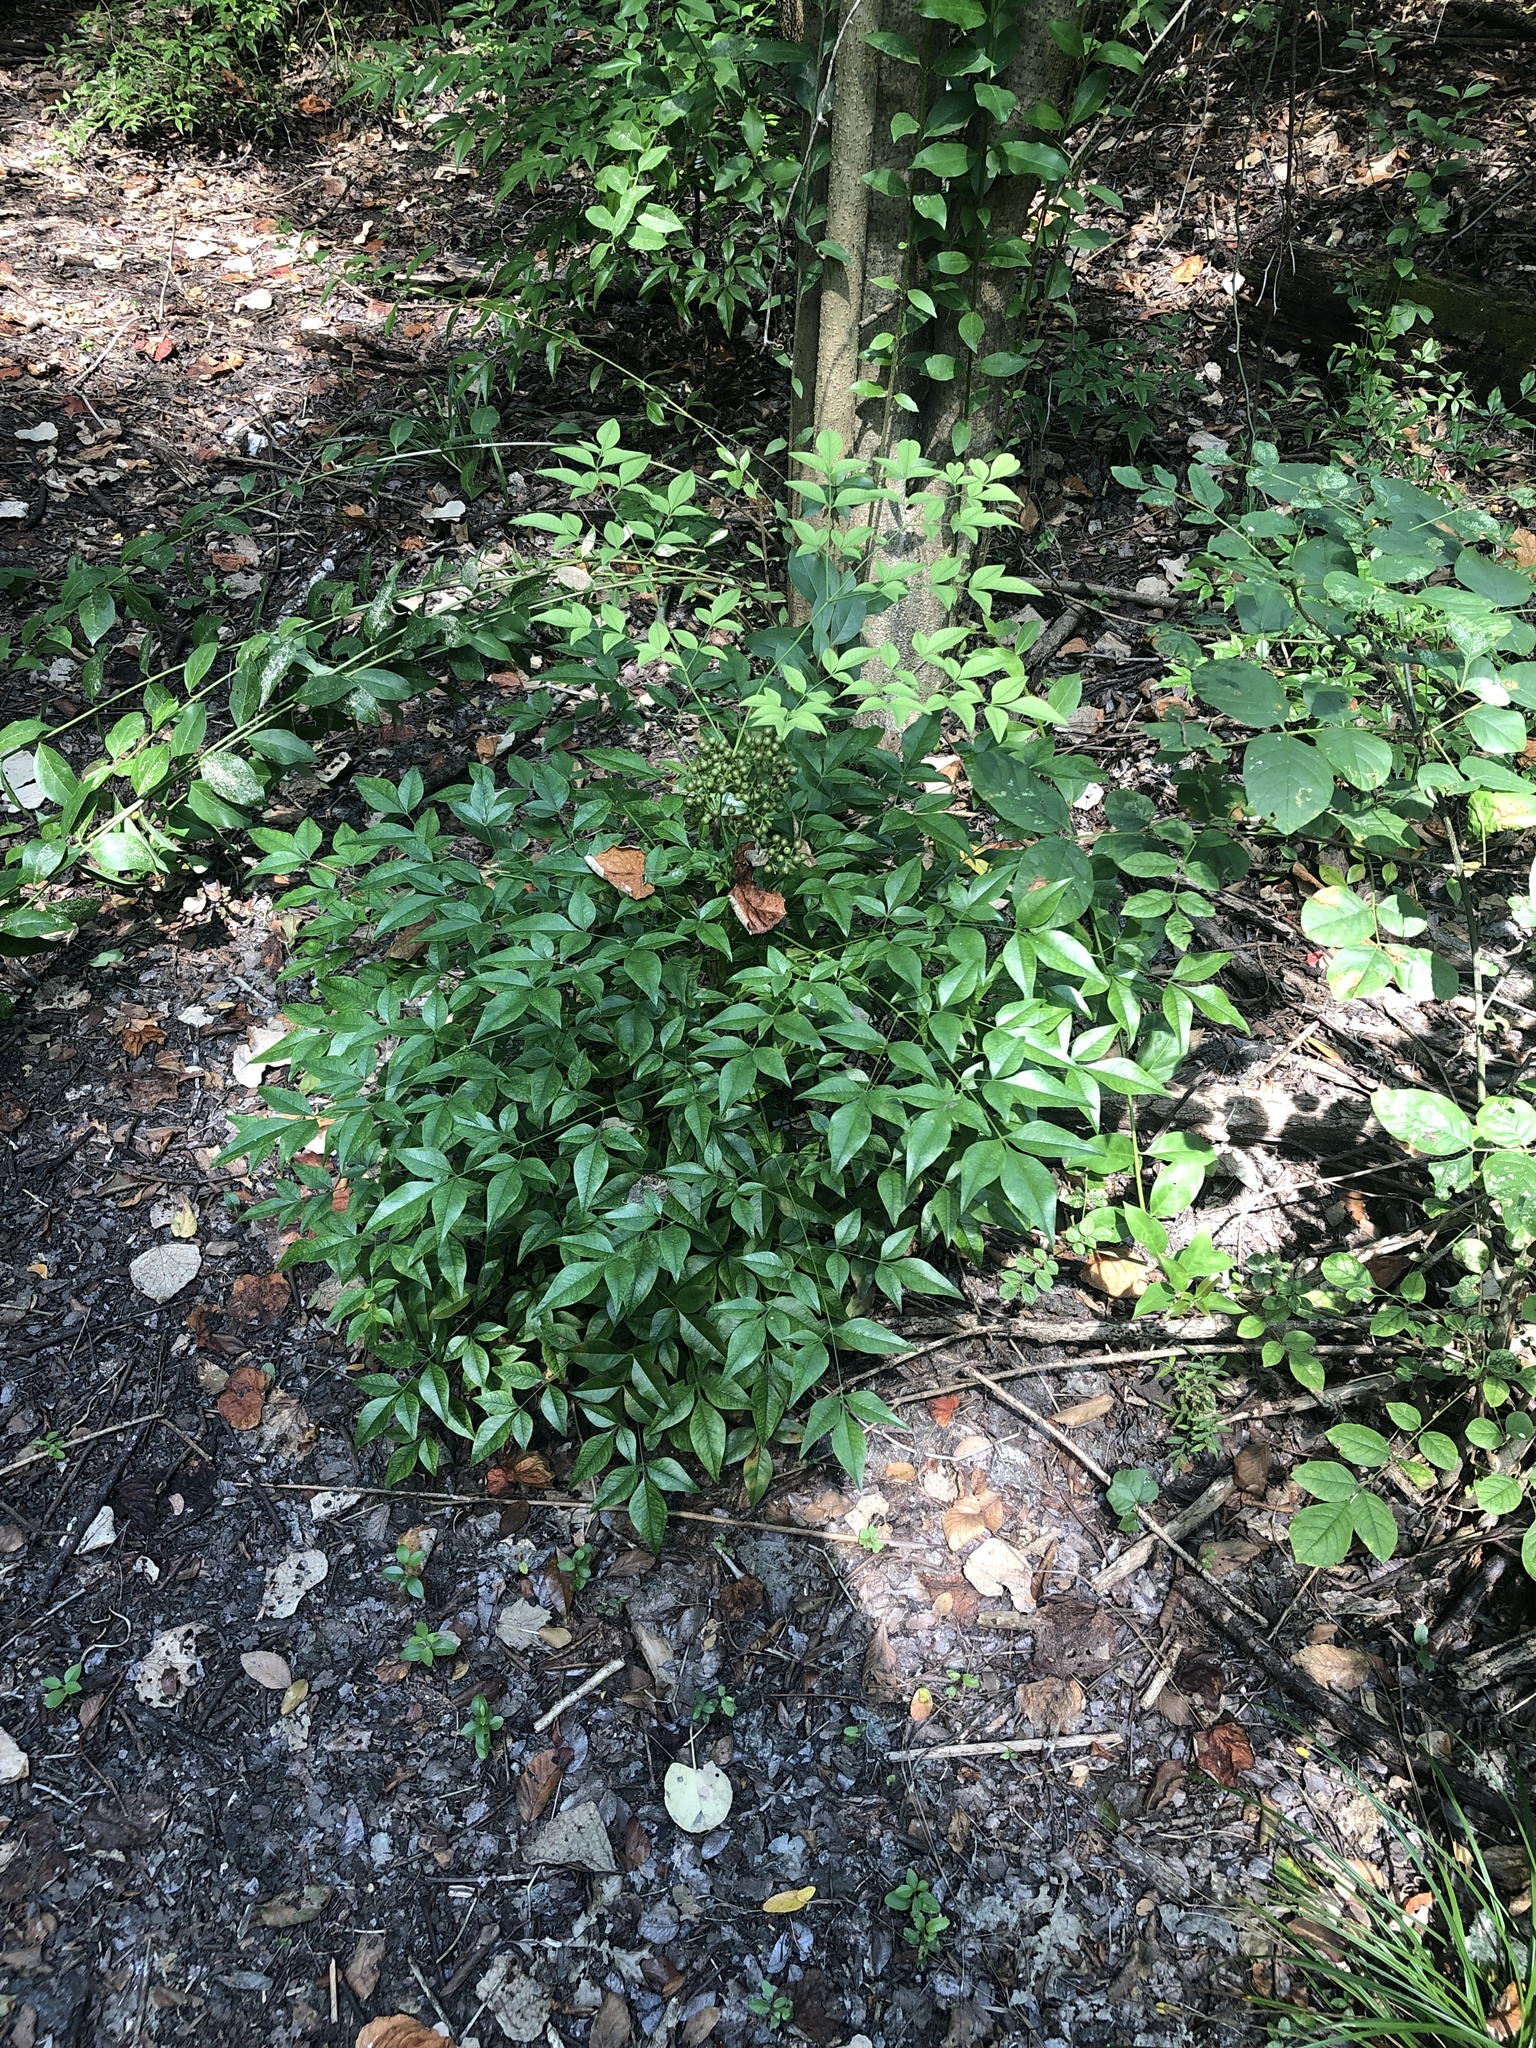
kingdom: Plantae
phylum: Tracheophyta
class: Magnoliopsida
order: Ranunculales
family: Berberidaceae
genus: Nandina
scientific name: Nandina domestica
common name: Sacred bamboo
